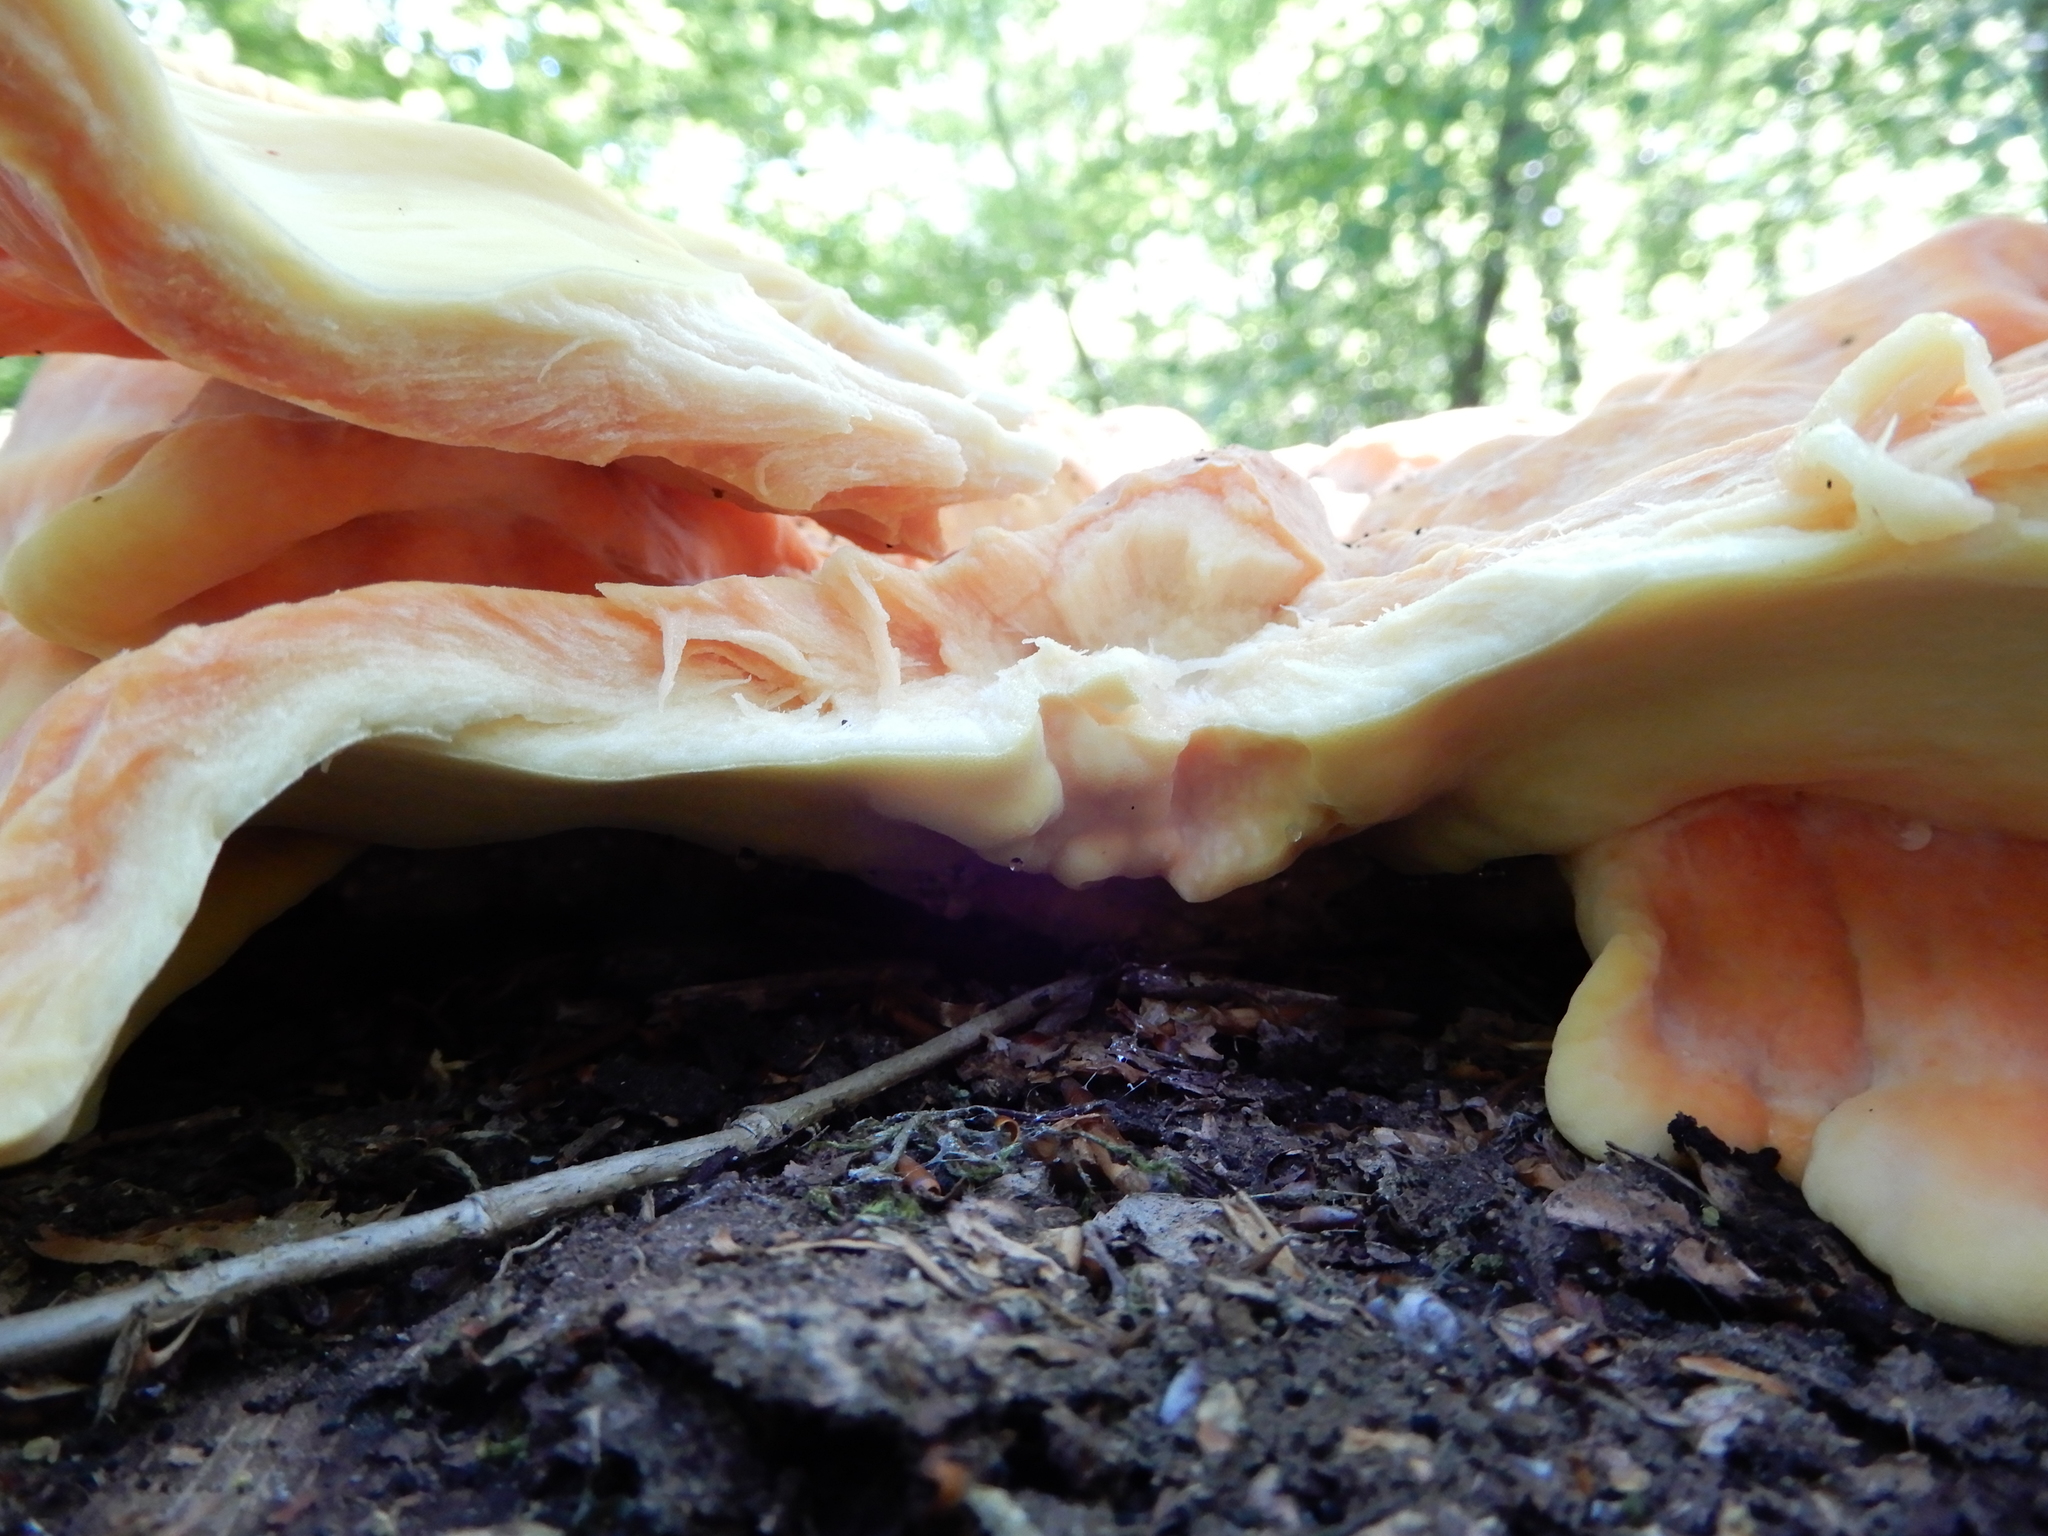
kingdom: Fungi
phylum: Basidiomycota
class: Agaricomycetes
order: Polyporales
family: Laetiporaceae
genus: Laetiporus
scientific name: Laetiporus sulphureus
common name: Chicken of the woods
